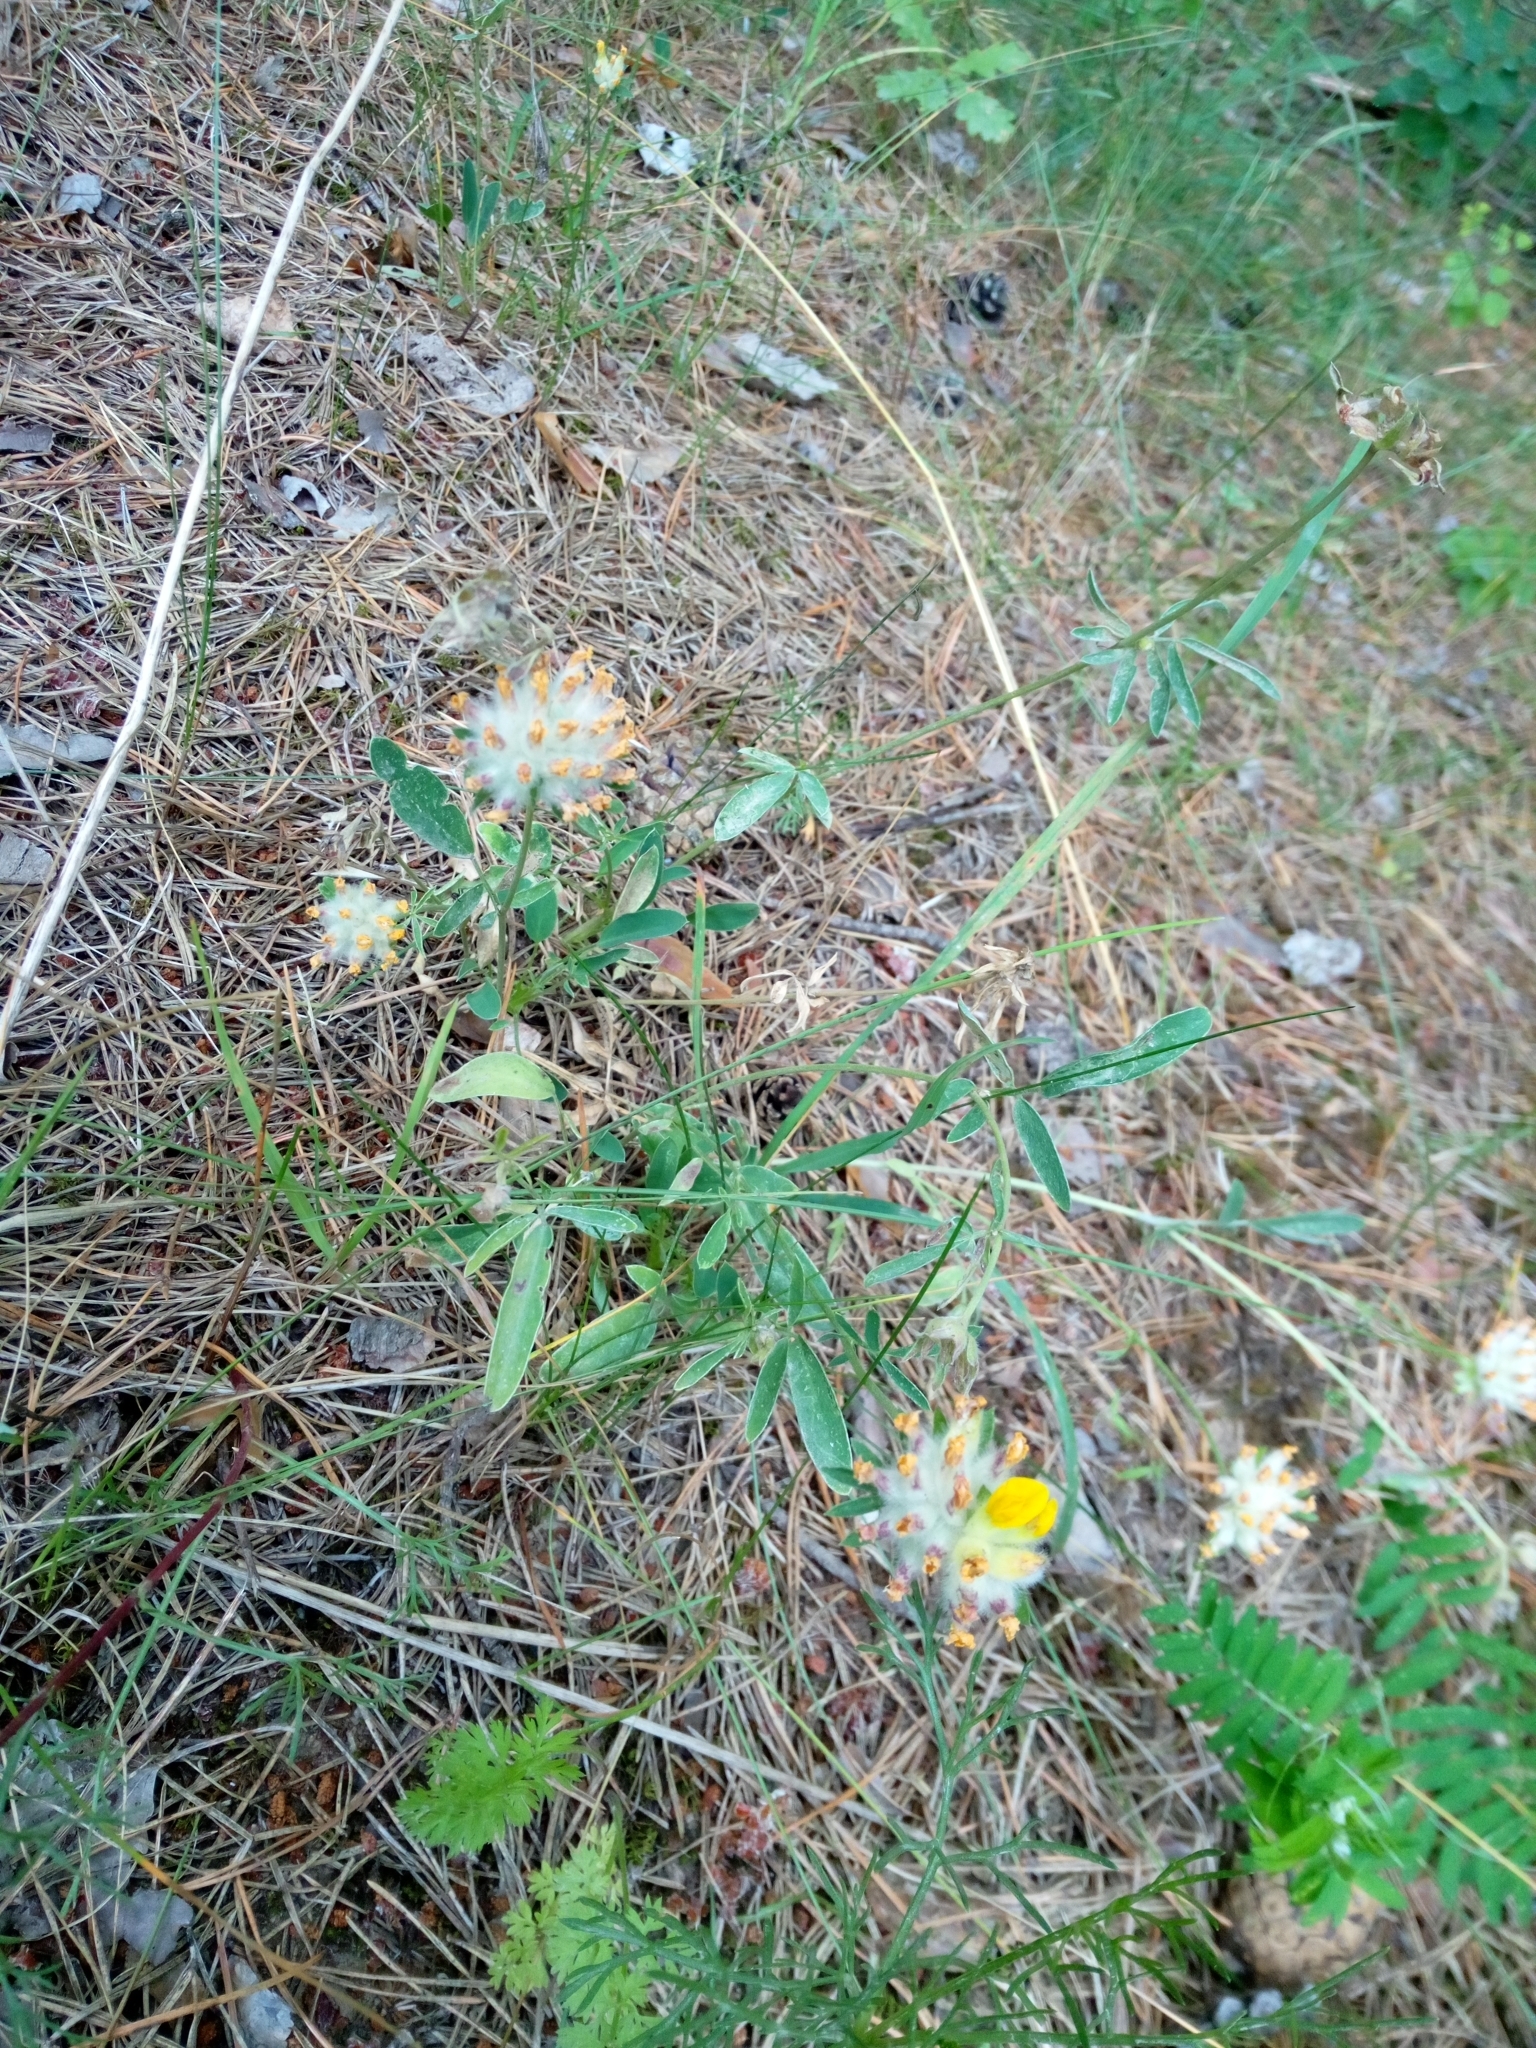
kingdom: Plantae
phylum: Tracheophyta
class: Magnoliopsida
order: Fabales
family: Fabaceae
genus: Anthyllis
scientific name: Anthyllis vulneraria
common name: Kidney vetch
